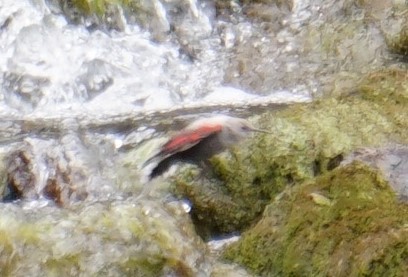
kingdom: Animalia
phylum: Chordata
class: Aves
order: Passeriformes
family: Tichodromidae
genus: Tichodroma
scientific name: Tichodroma muraria
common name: Wallcreeper
